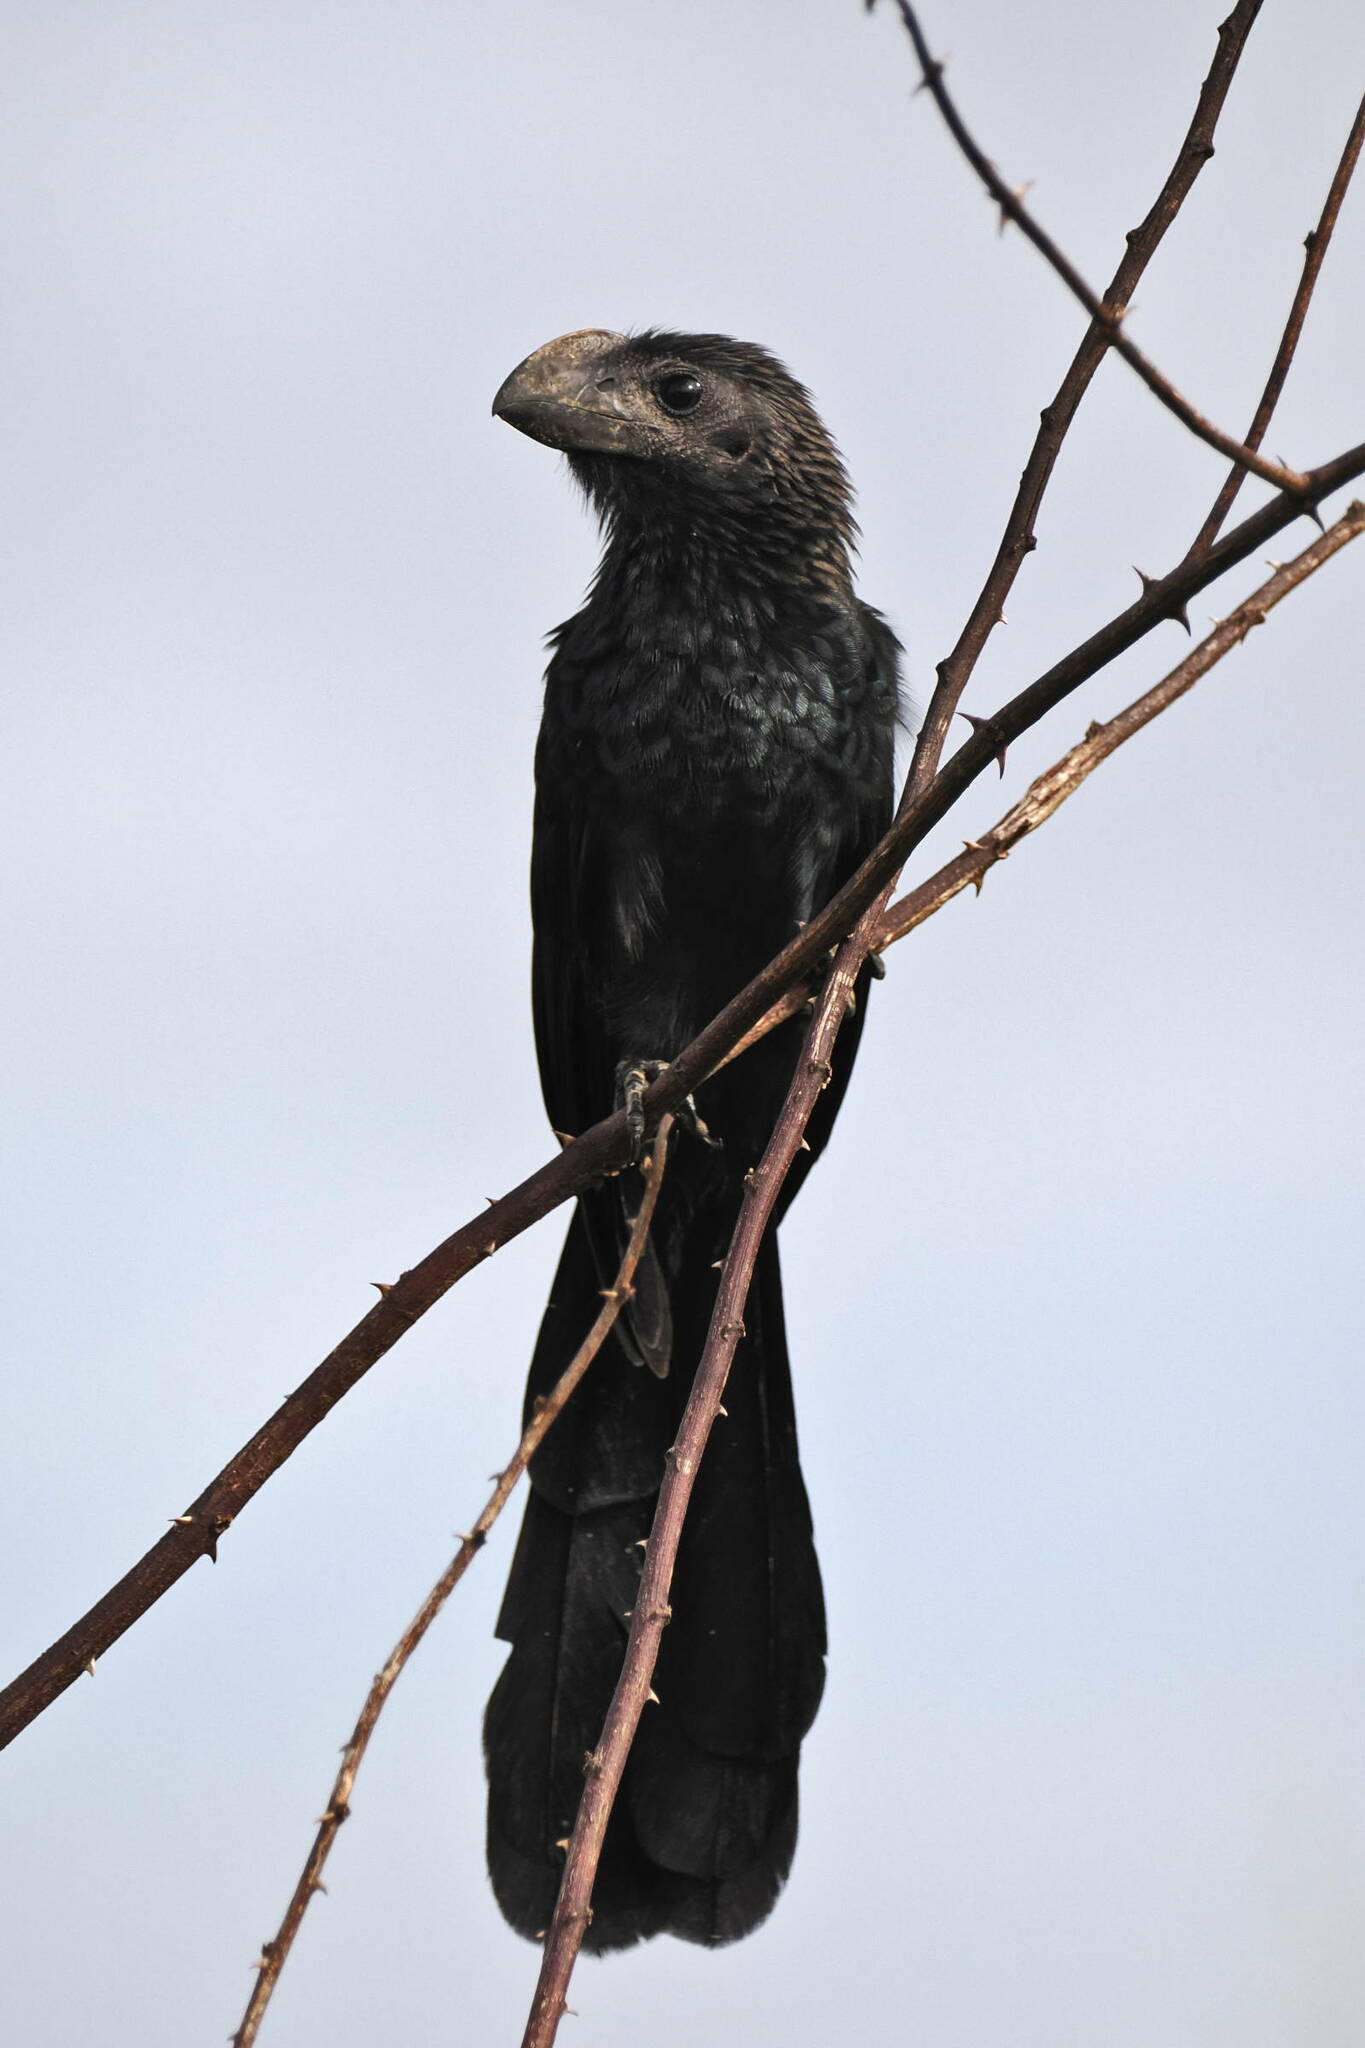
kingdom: Animalia
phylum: Chordata
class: Aves
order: Cuculiformes
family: Cuculidae
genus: Crotophaga
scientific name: Crotophaga ani
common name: Smooth-billed ani
